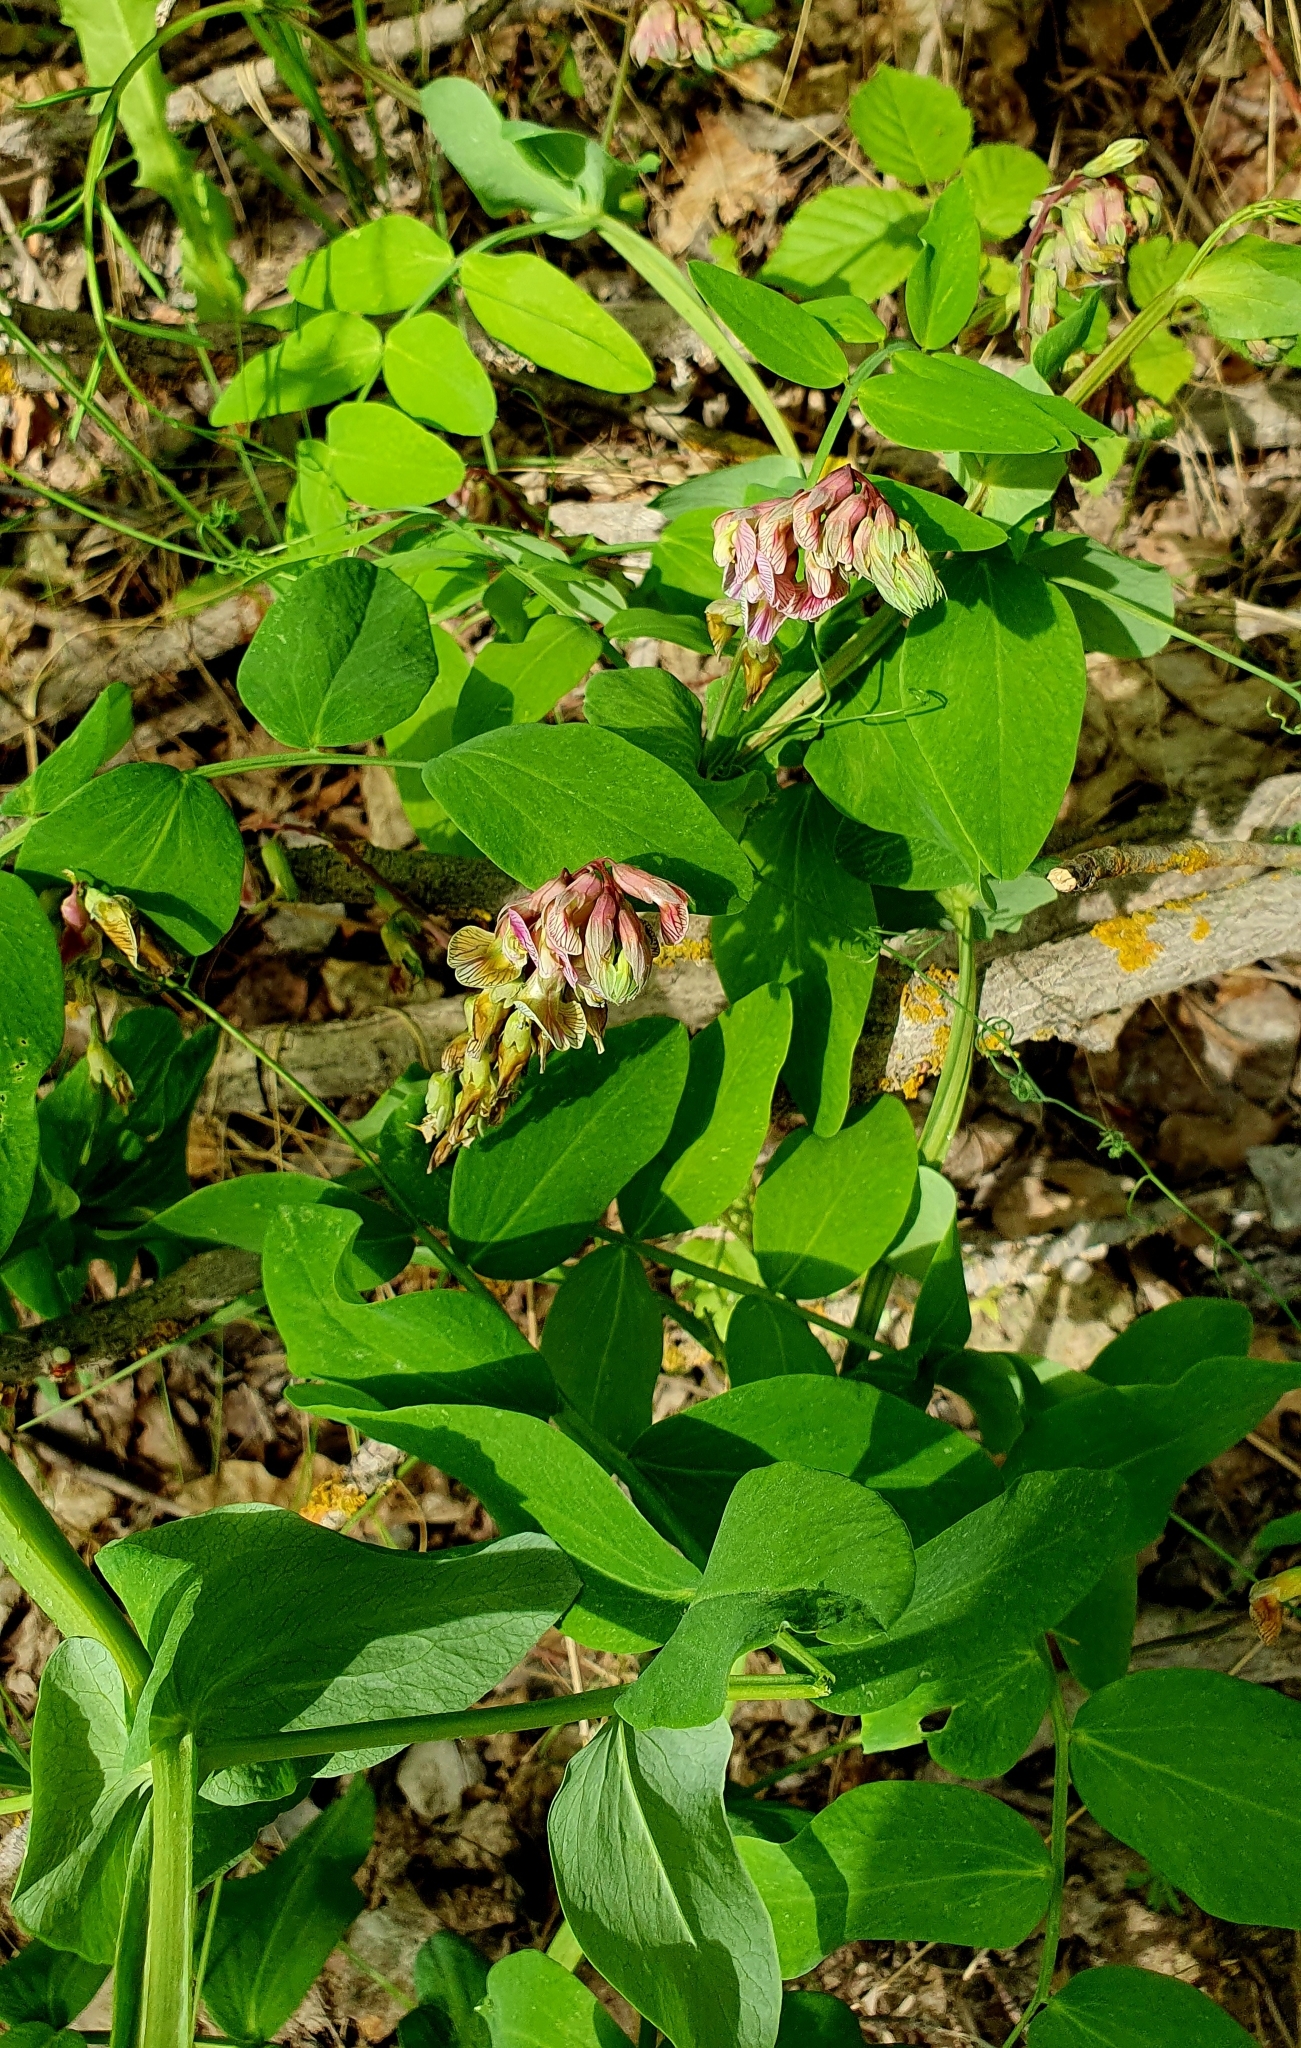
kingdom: Plantae
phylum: Tracheophyta
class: Magnoliopsida
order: Fabales
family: Fabaceae
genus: Lathyrus
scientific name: Lathyrus pisiformis
